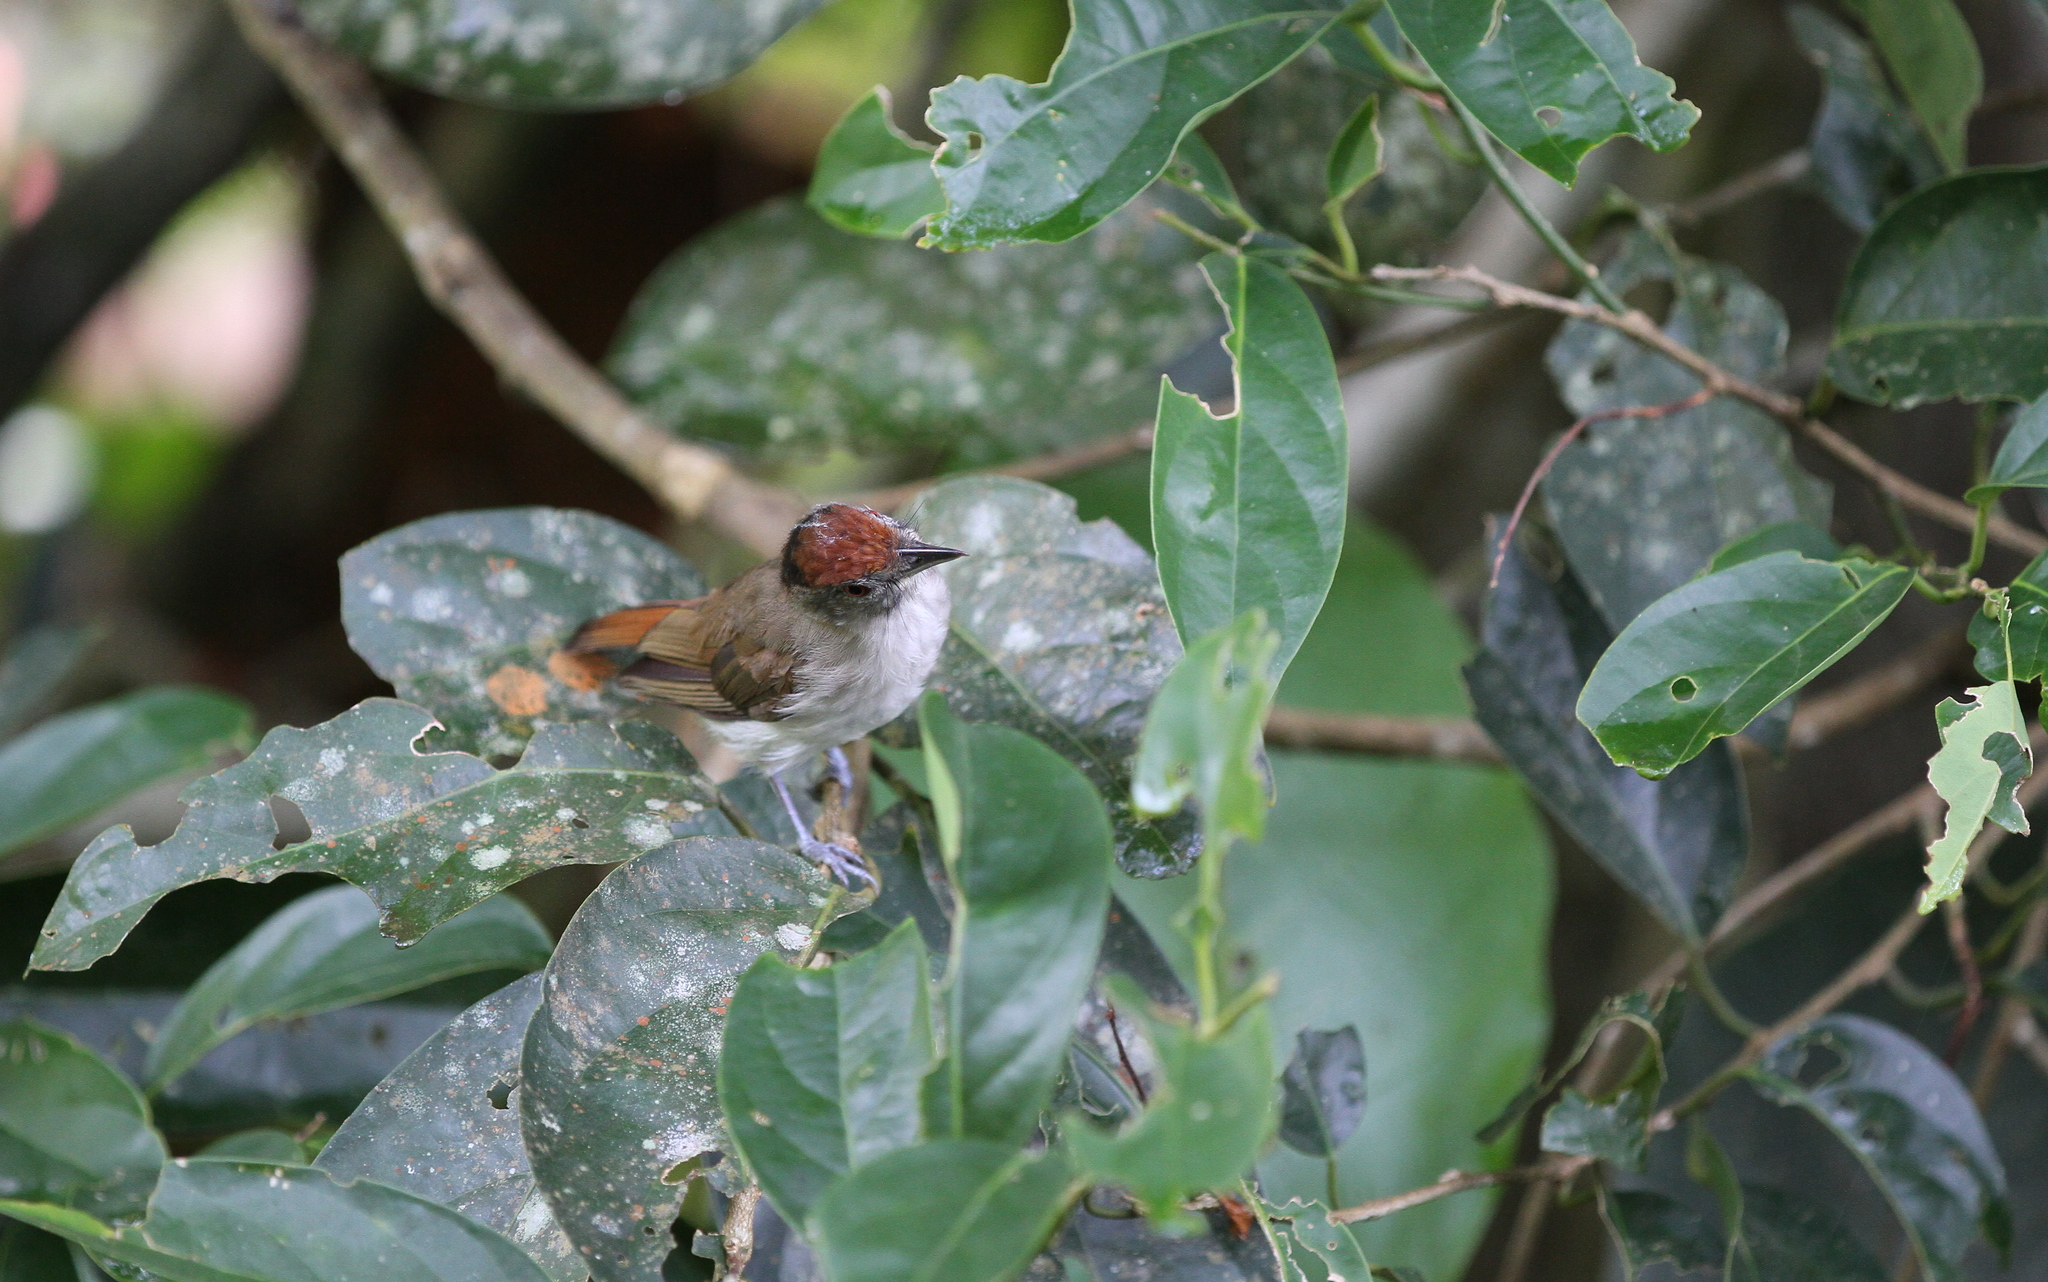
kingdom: Animalia
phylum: Chordata
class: Aves
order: Passeriformes
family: Pellorneidae
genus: Malacopteron
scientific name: Malacopteron magnum
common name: Rufous-crowned babbler
